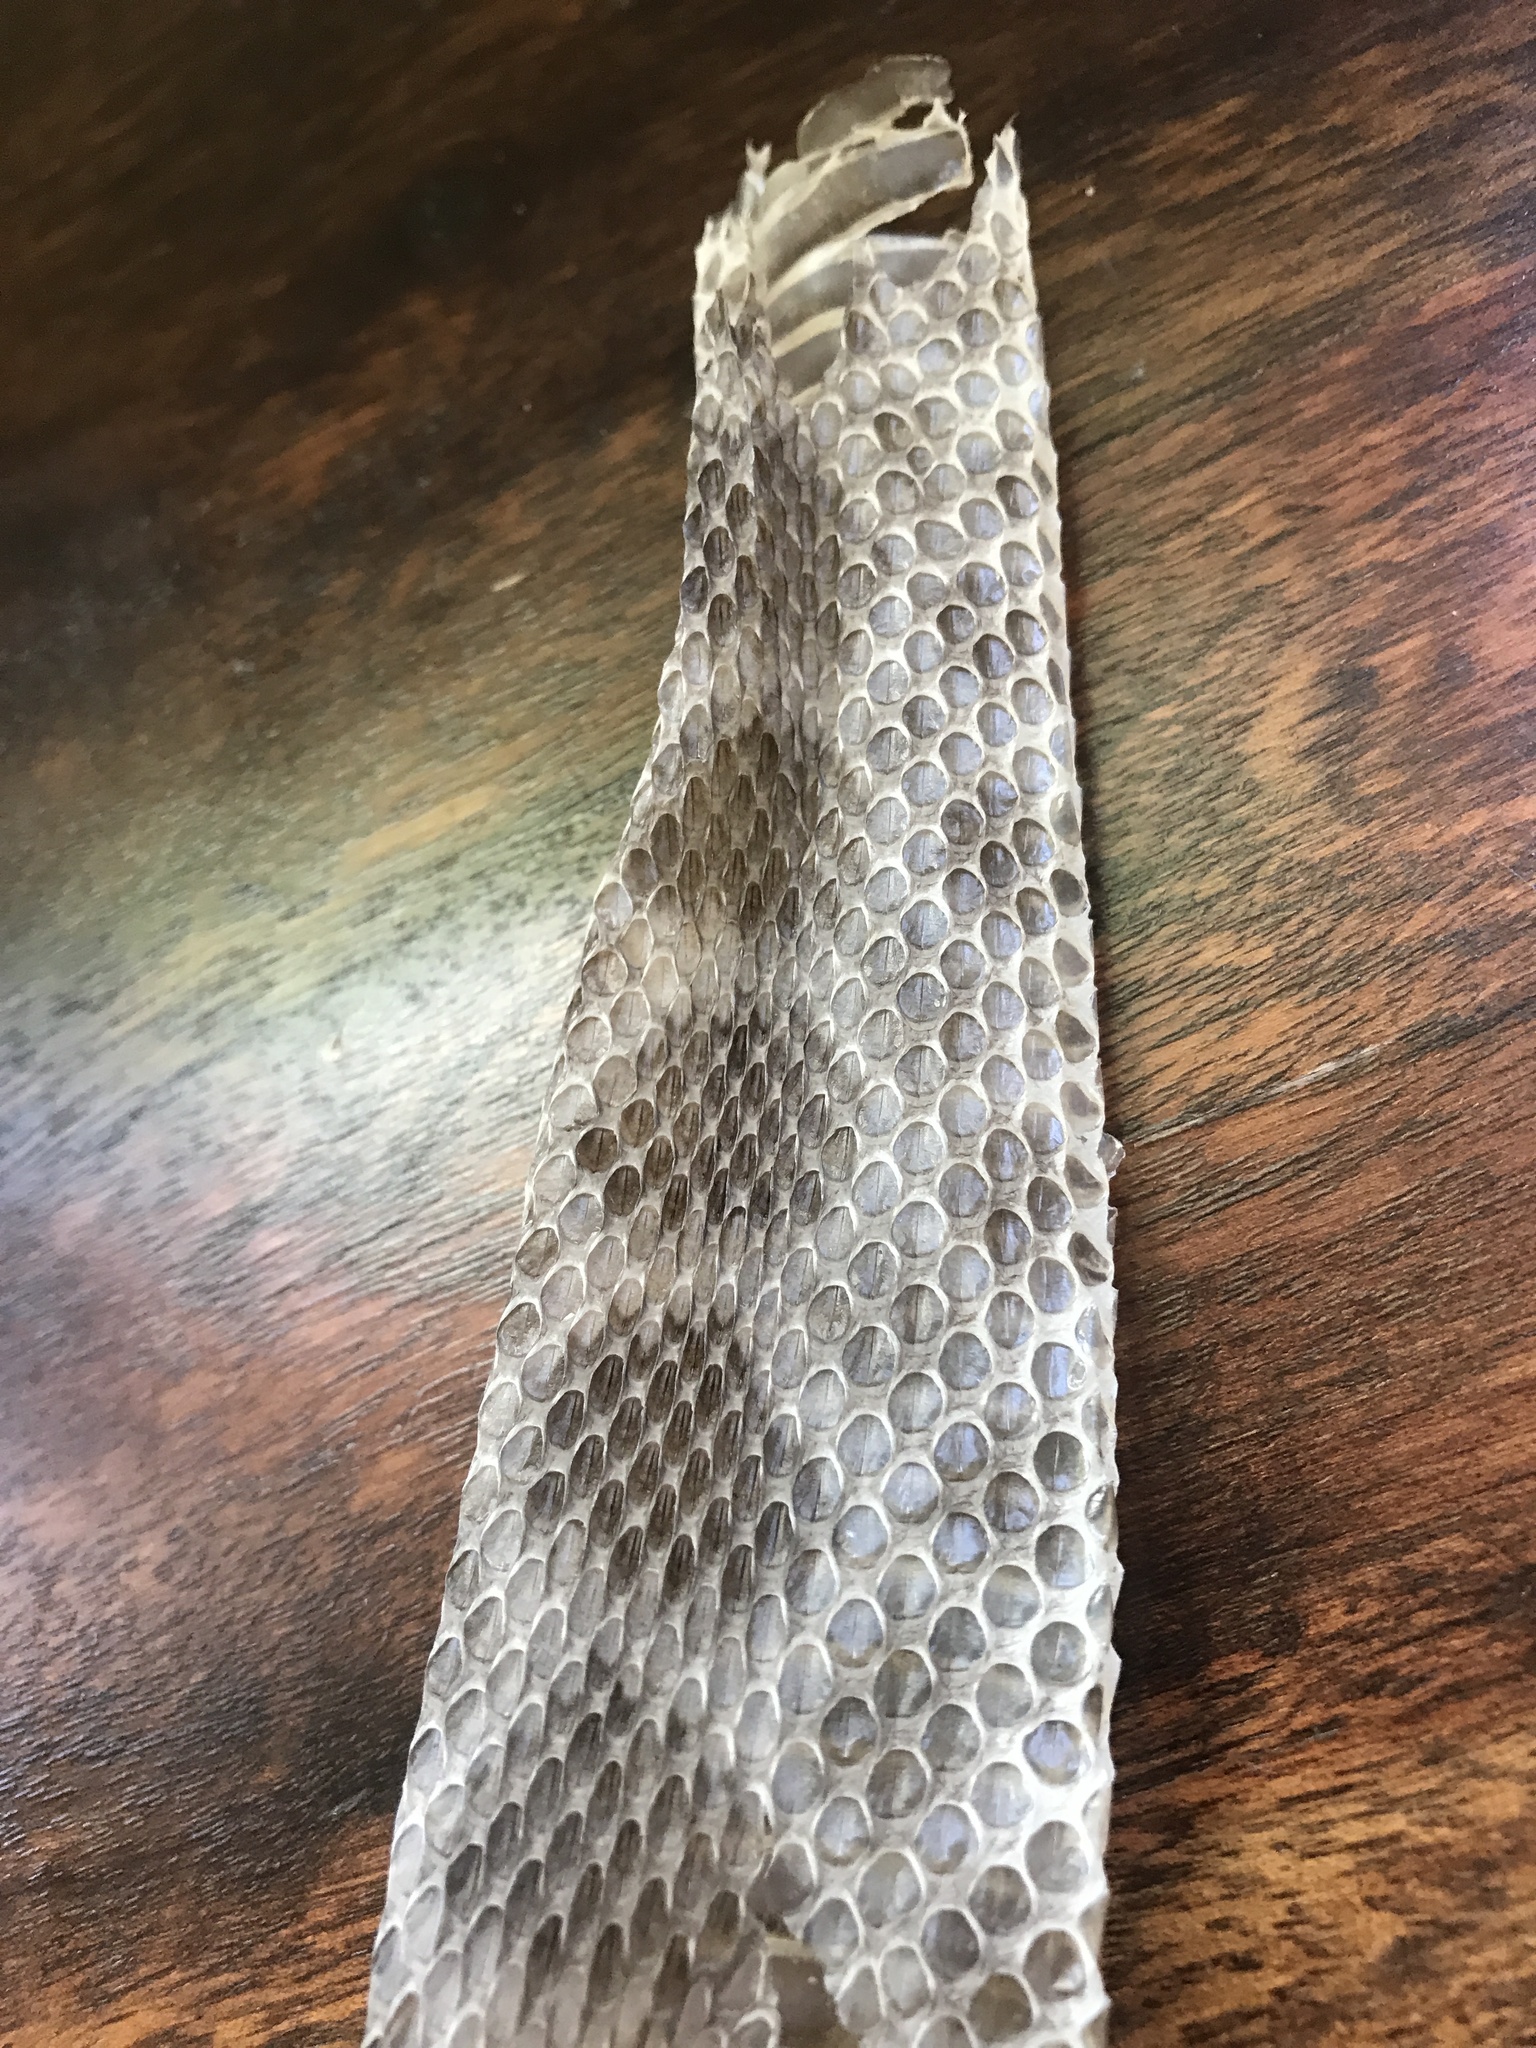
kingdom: Animalia
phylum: Chordata
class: Squamata
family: Viperidae
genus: Crotalus
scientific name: Crotalus oreganus
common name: Abyssus
